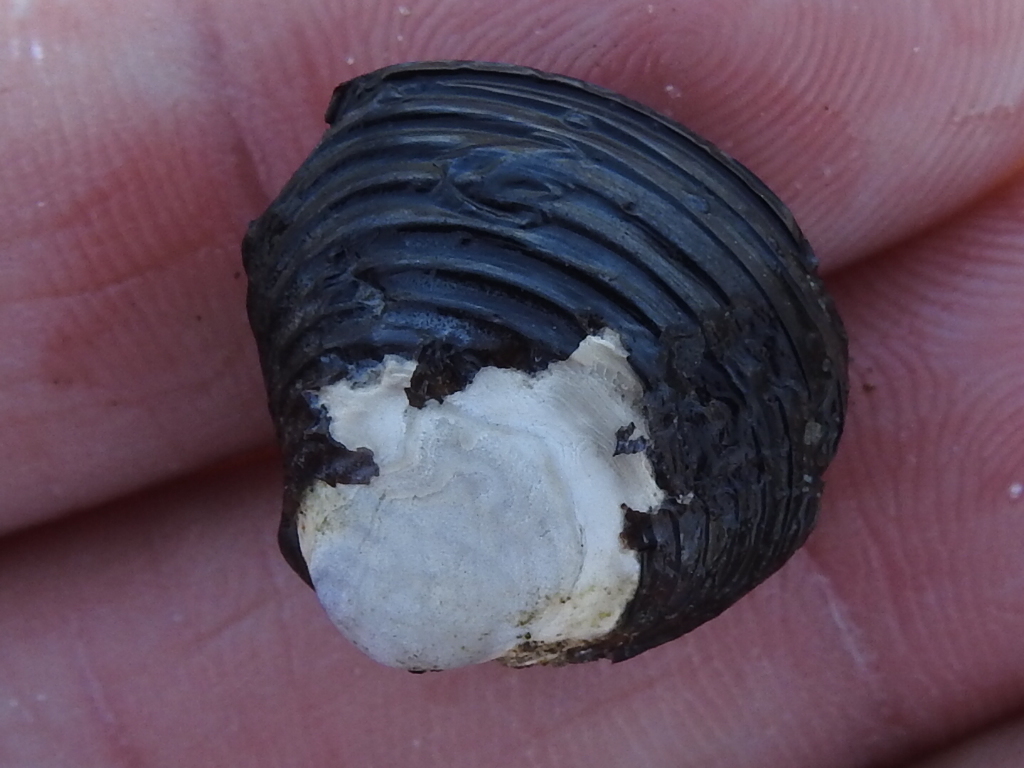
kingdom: Animalia
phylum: Mollusca
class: Bivalvia
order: Venerida
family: Cyrenidae
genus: Corbicula
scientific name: Corbicula fluminea
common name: Asian clam
